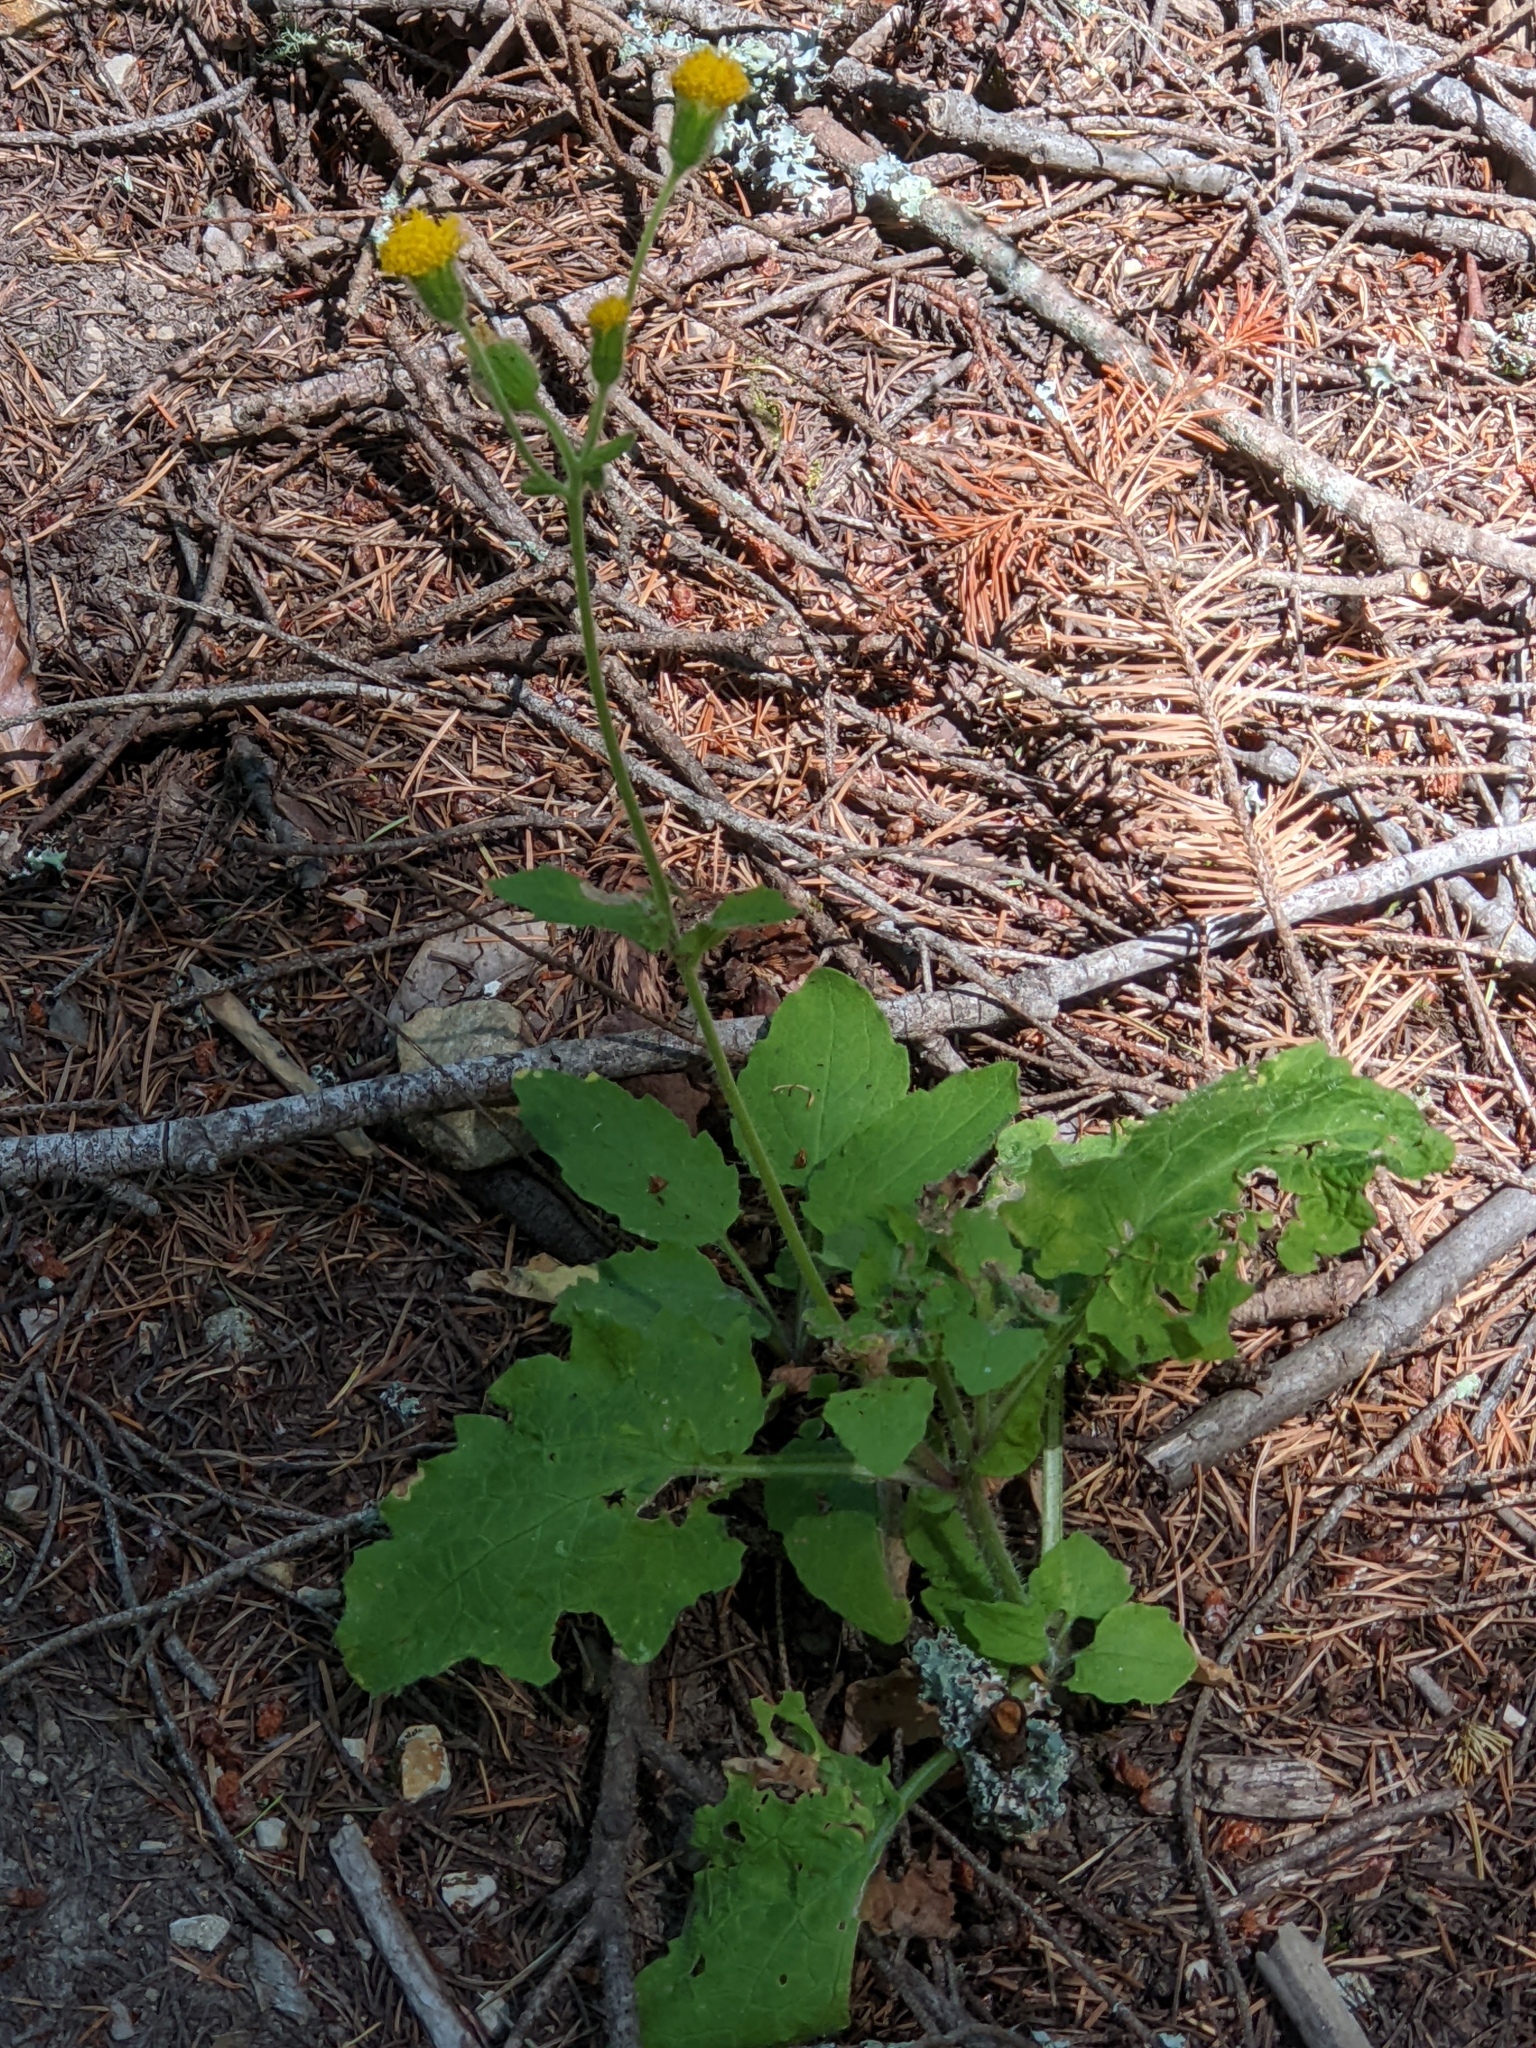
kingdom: Plantae
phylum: Tracheophyta
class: Magnoliopsida
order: Asterales
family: Asteraceae
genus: Arnica
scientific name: Arnica discoidea
